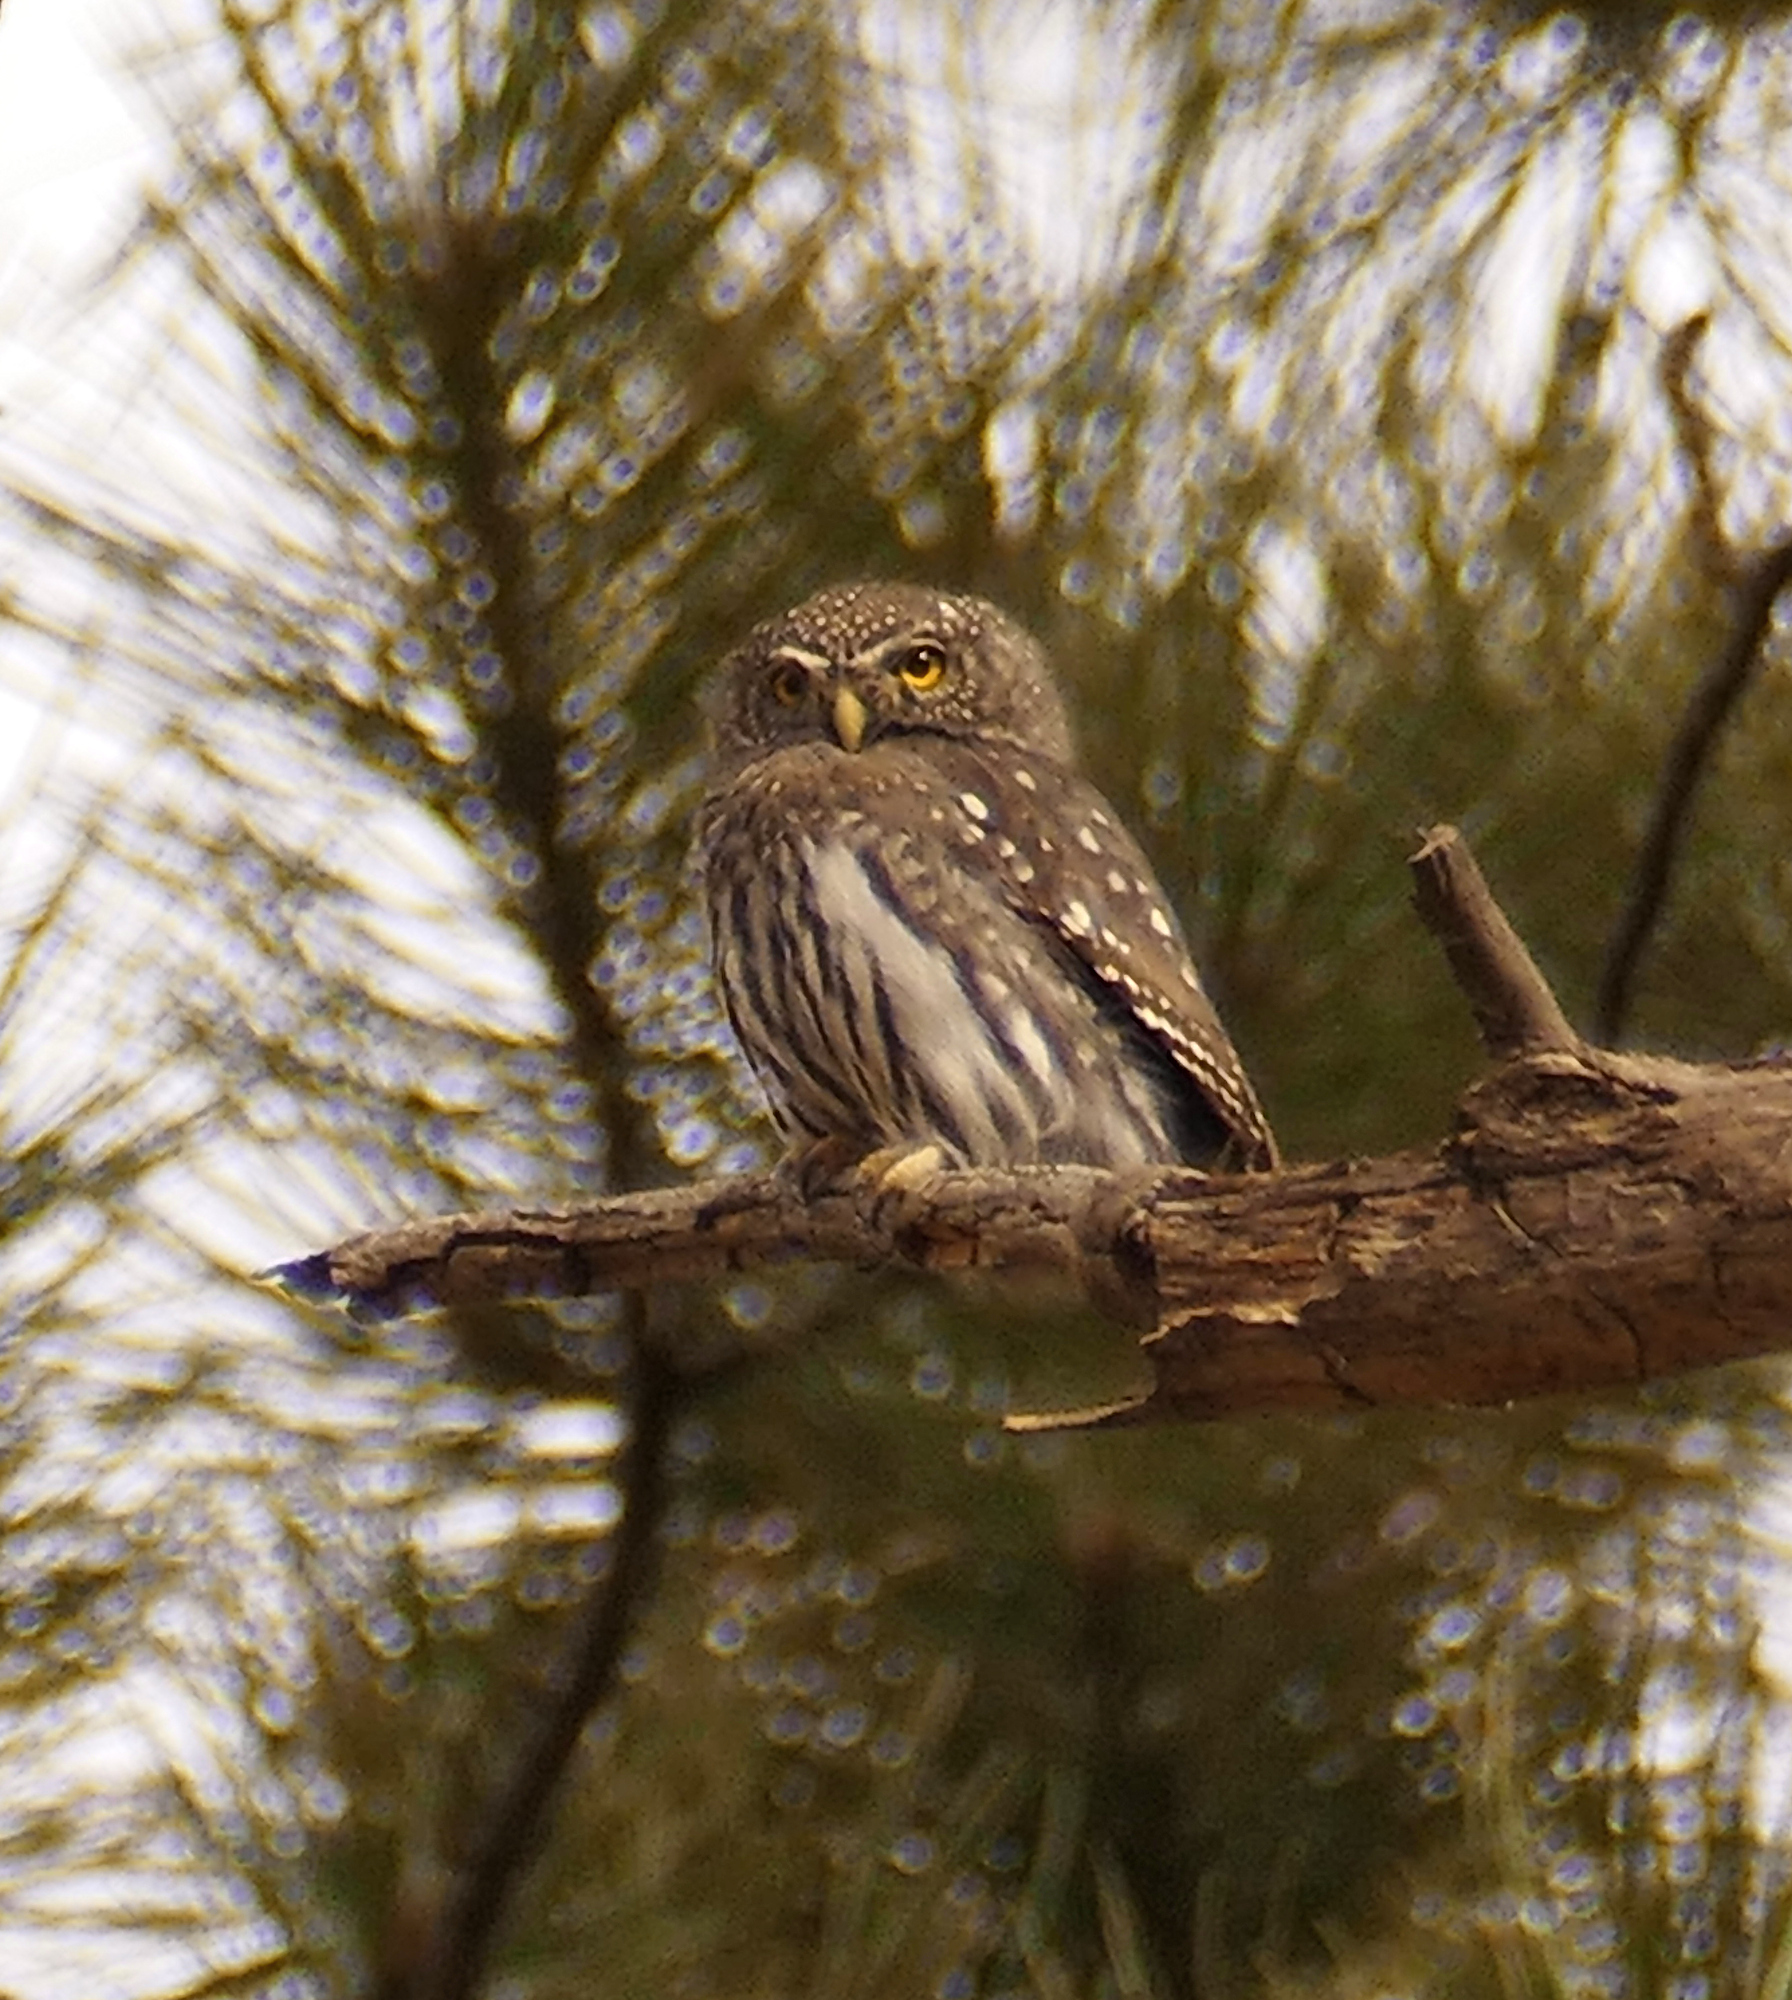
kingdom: Animalia
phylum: Chordata
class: Aves
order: Strigiformes
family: Strigidae
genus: Glaucidium
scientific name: Glaucidium gnoma
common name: Northern pygmy-owl
